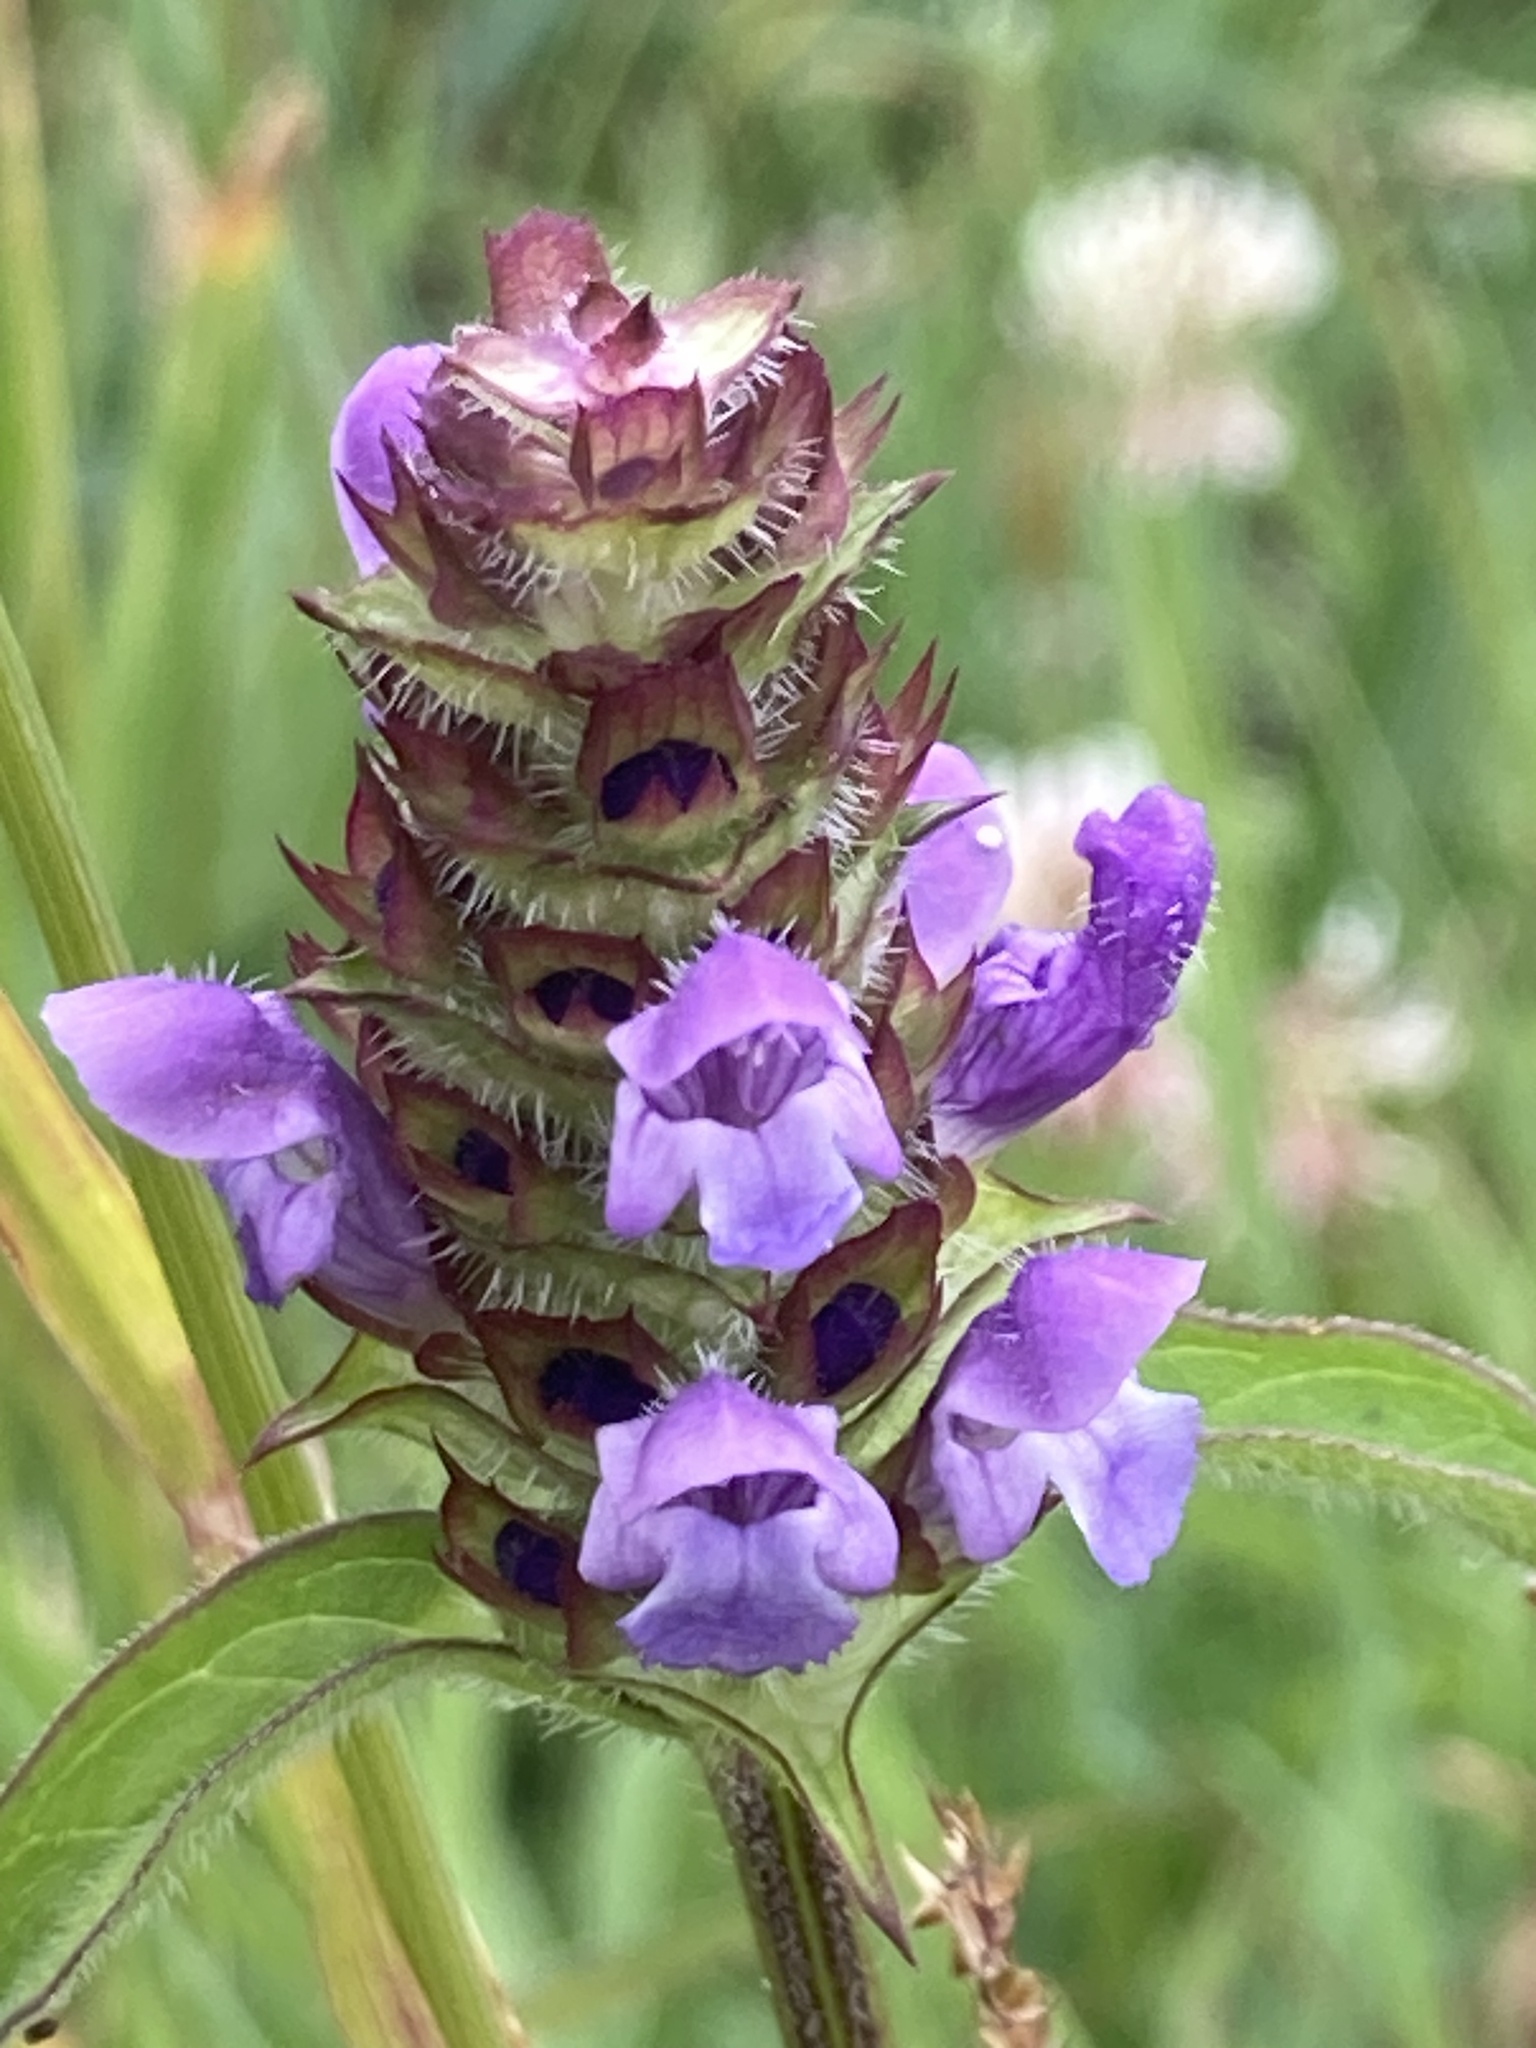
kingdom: Plantae
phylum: Tracheophyta
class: Magnoliopsida
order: Lamiales
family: Lamiaceae
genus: Prunella
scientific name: Prunella vulgaris
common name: Heal-all
